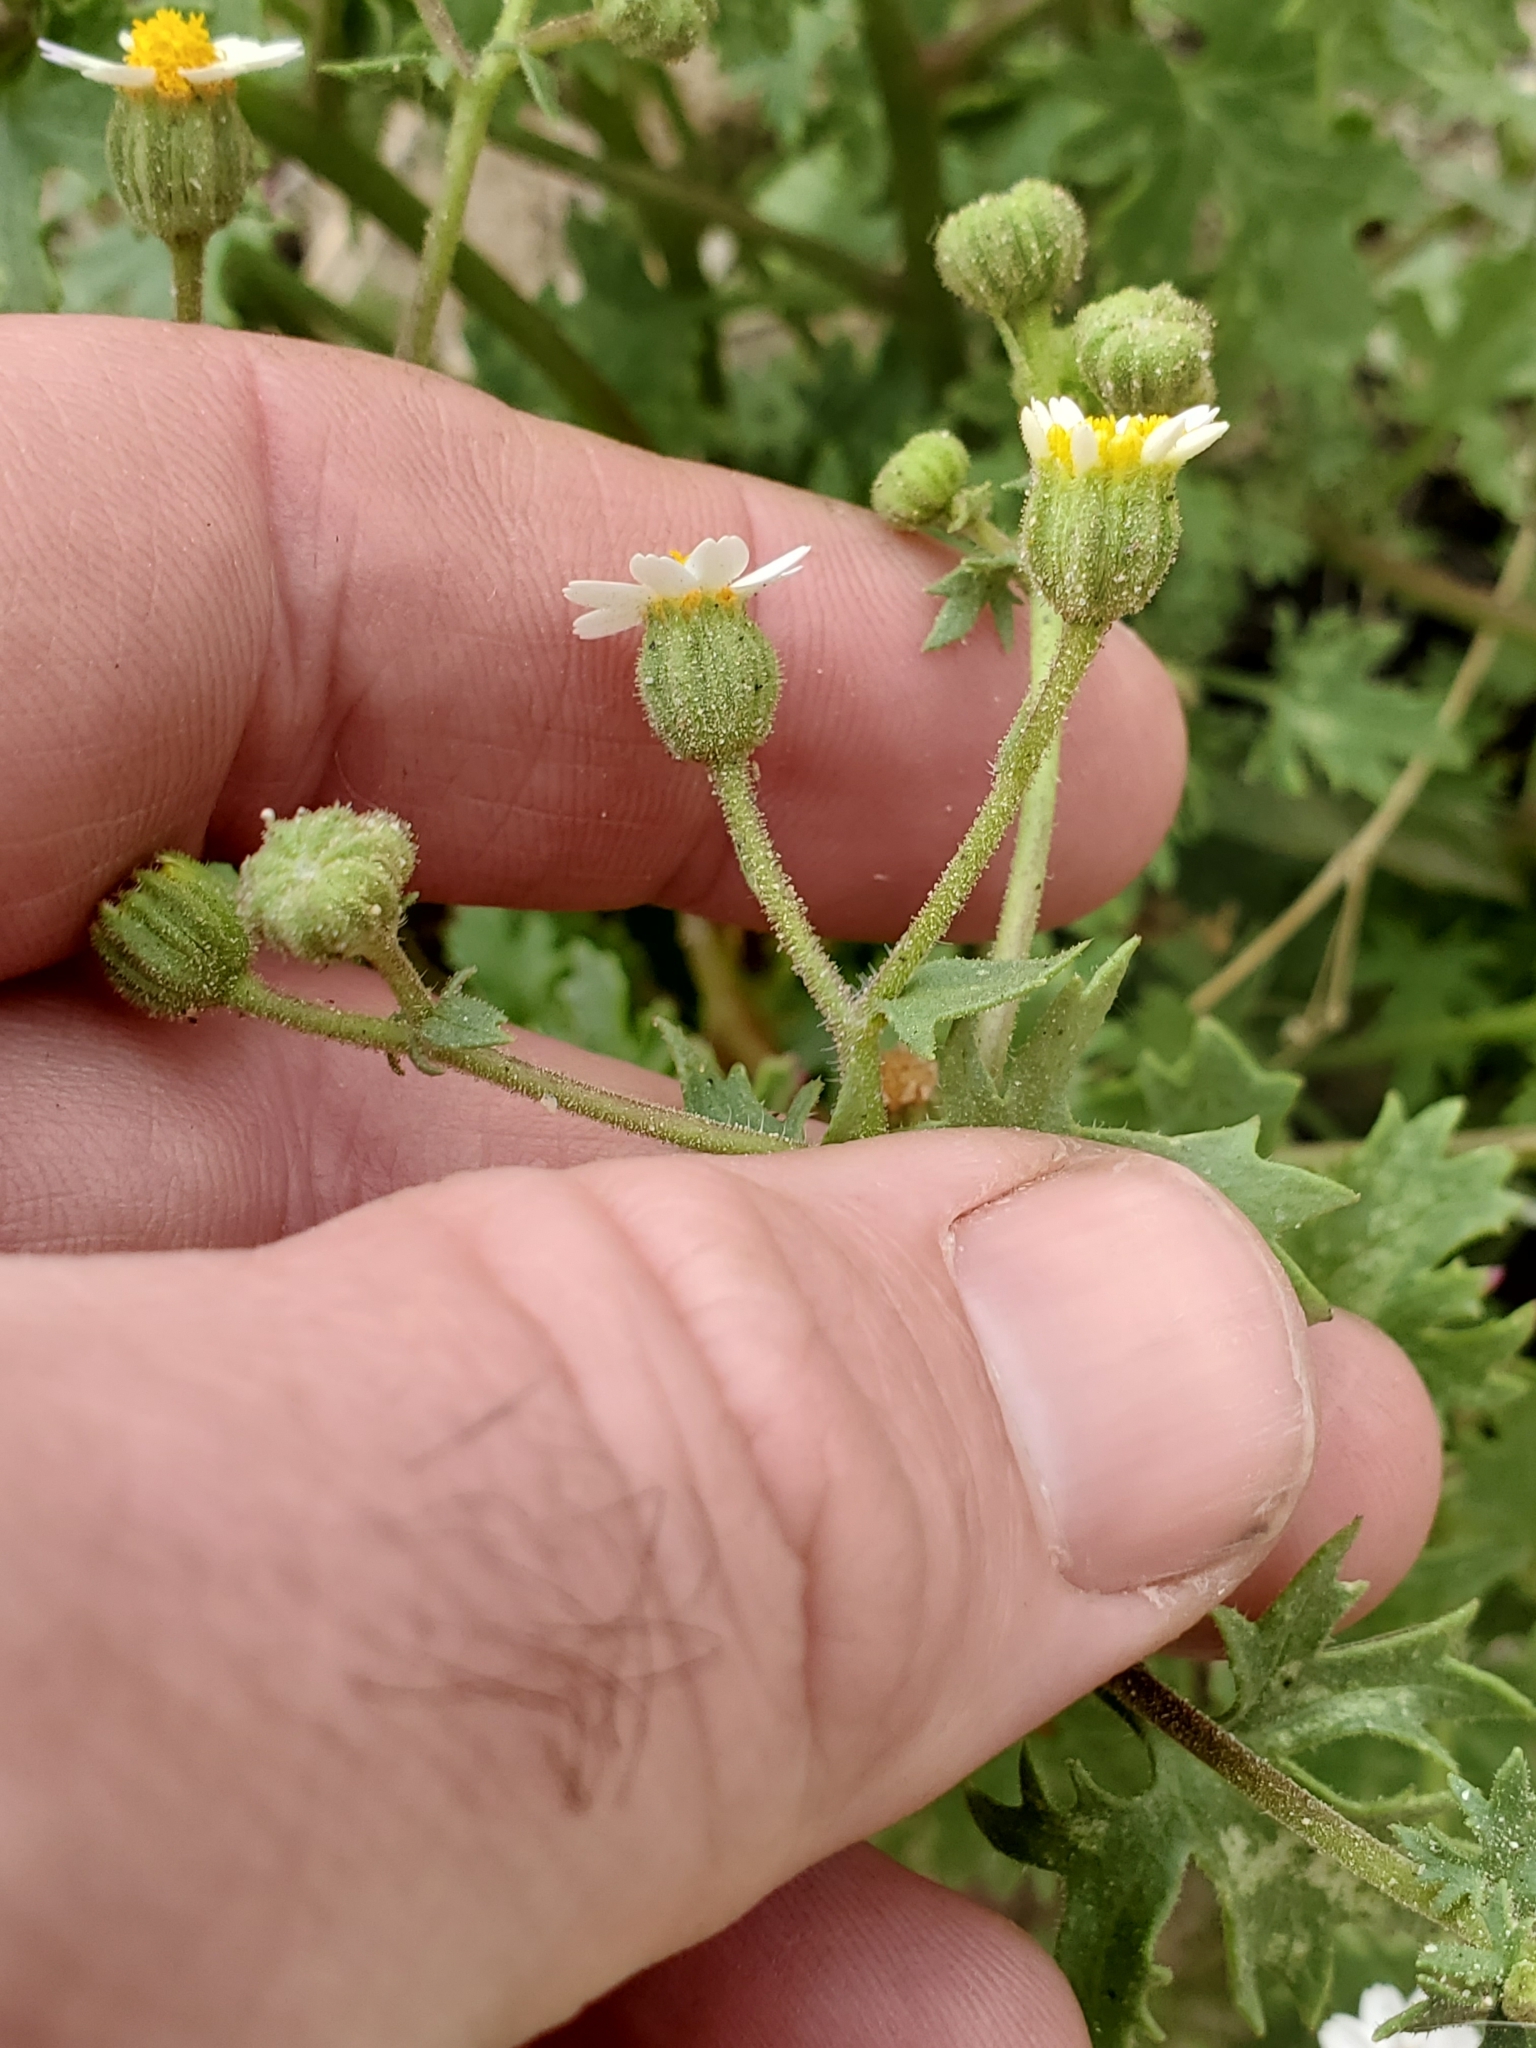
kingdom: Plantae
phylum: Tracheophyta
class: Magnoliopsida
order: Asterales
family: Asteraceae
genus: Laphamia
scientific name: Laphamia emoryi
